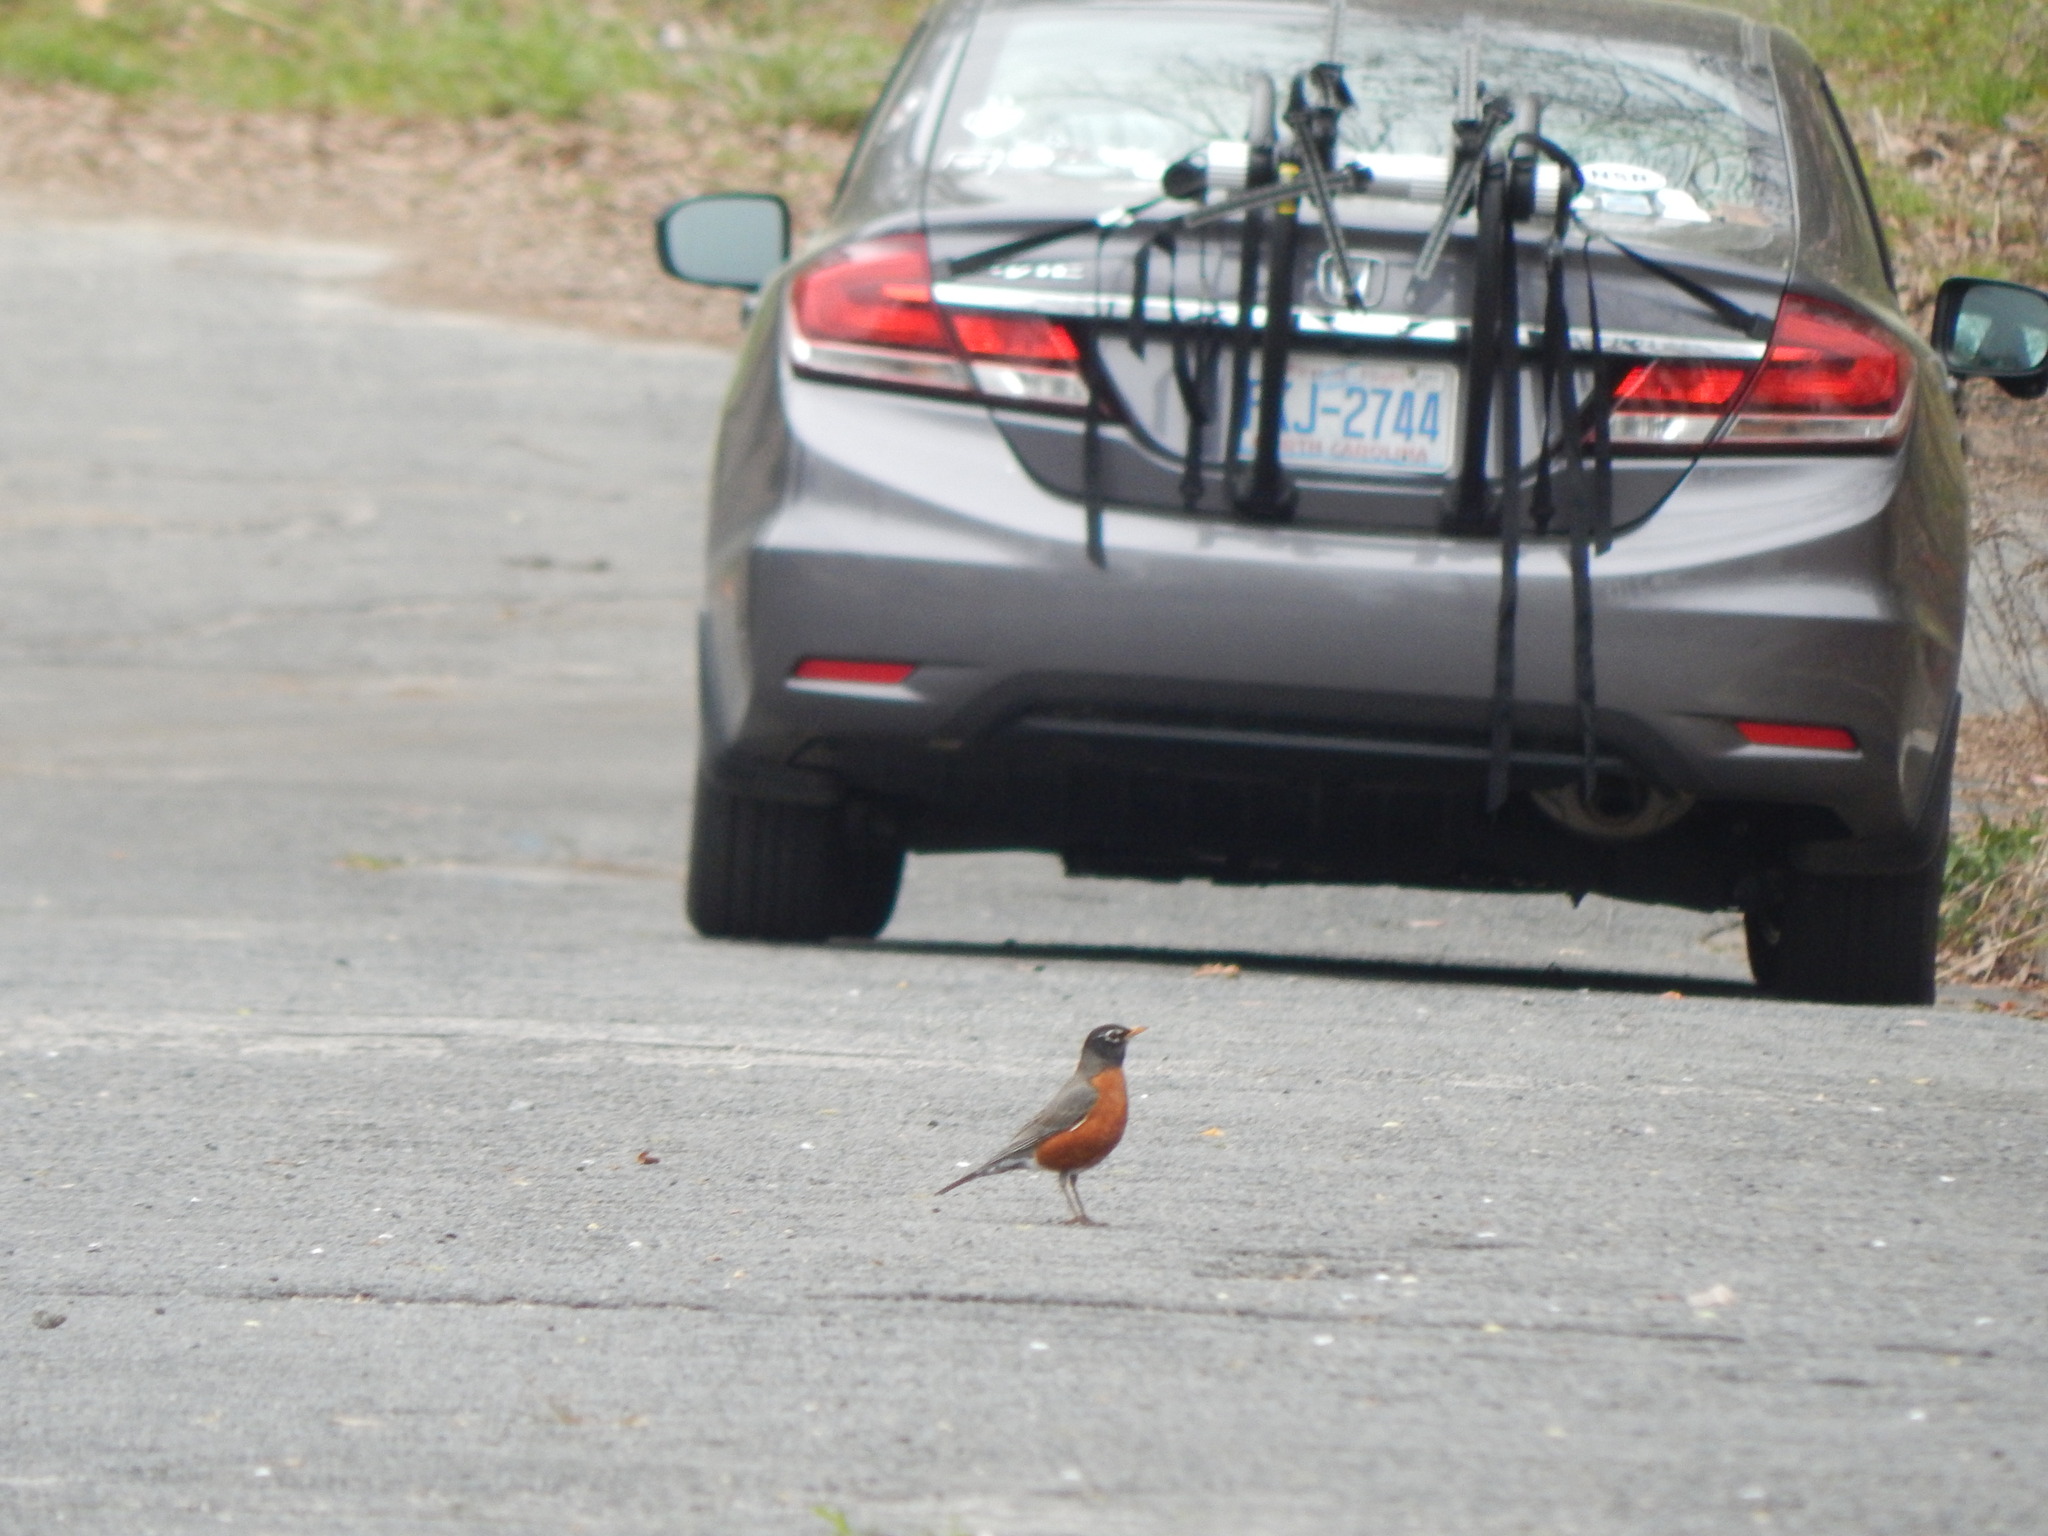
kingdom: Animalia
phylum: Chordata
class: Aves
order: Passeriformes
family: Turdidae
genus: Turdus
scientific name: Turdus migratorius
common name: American robin
